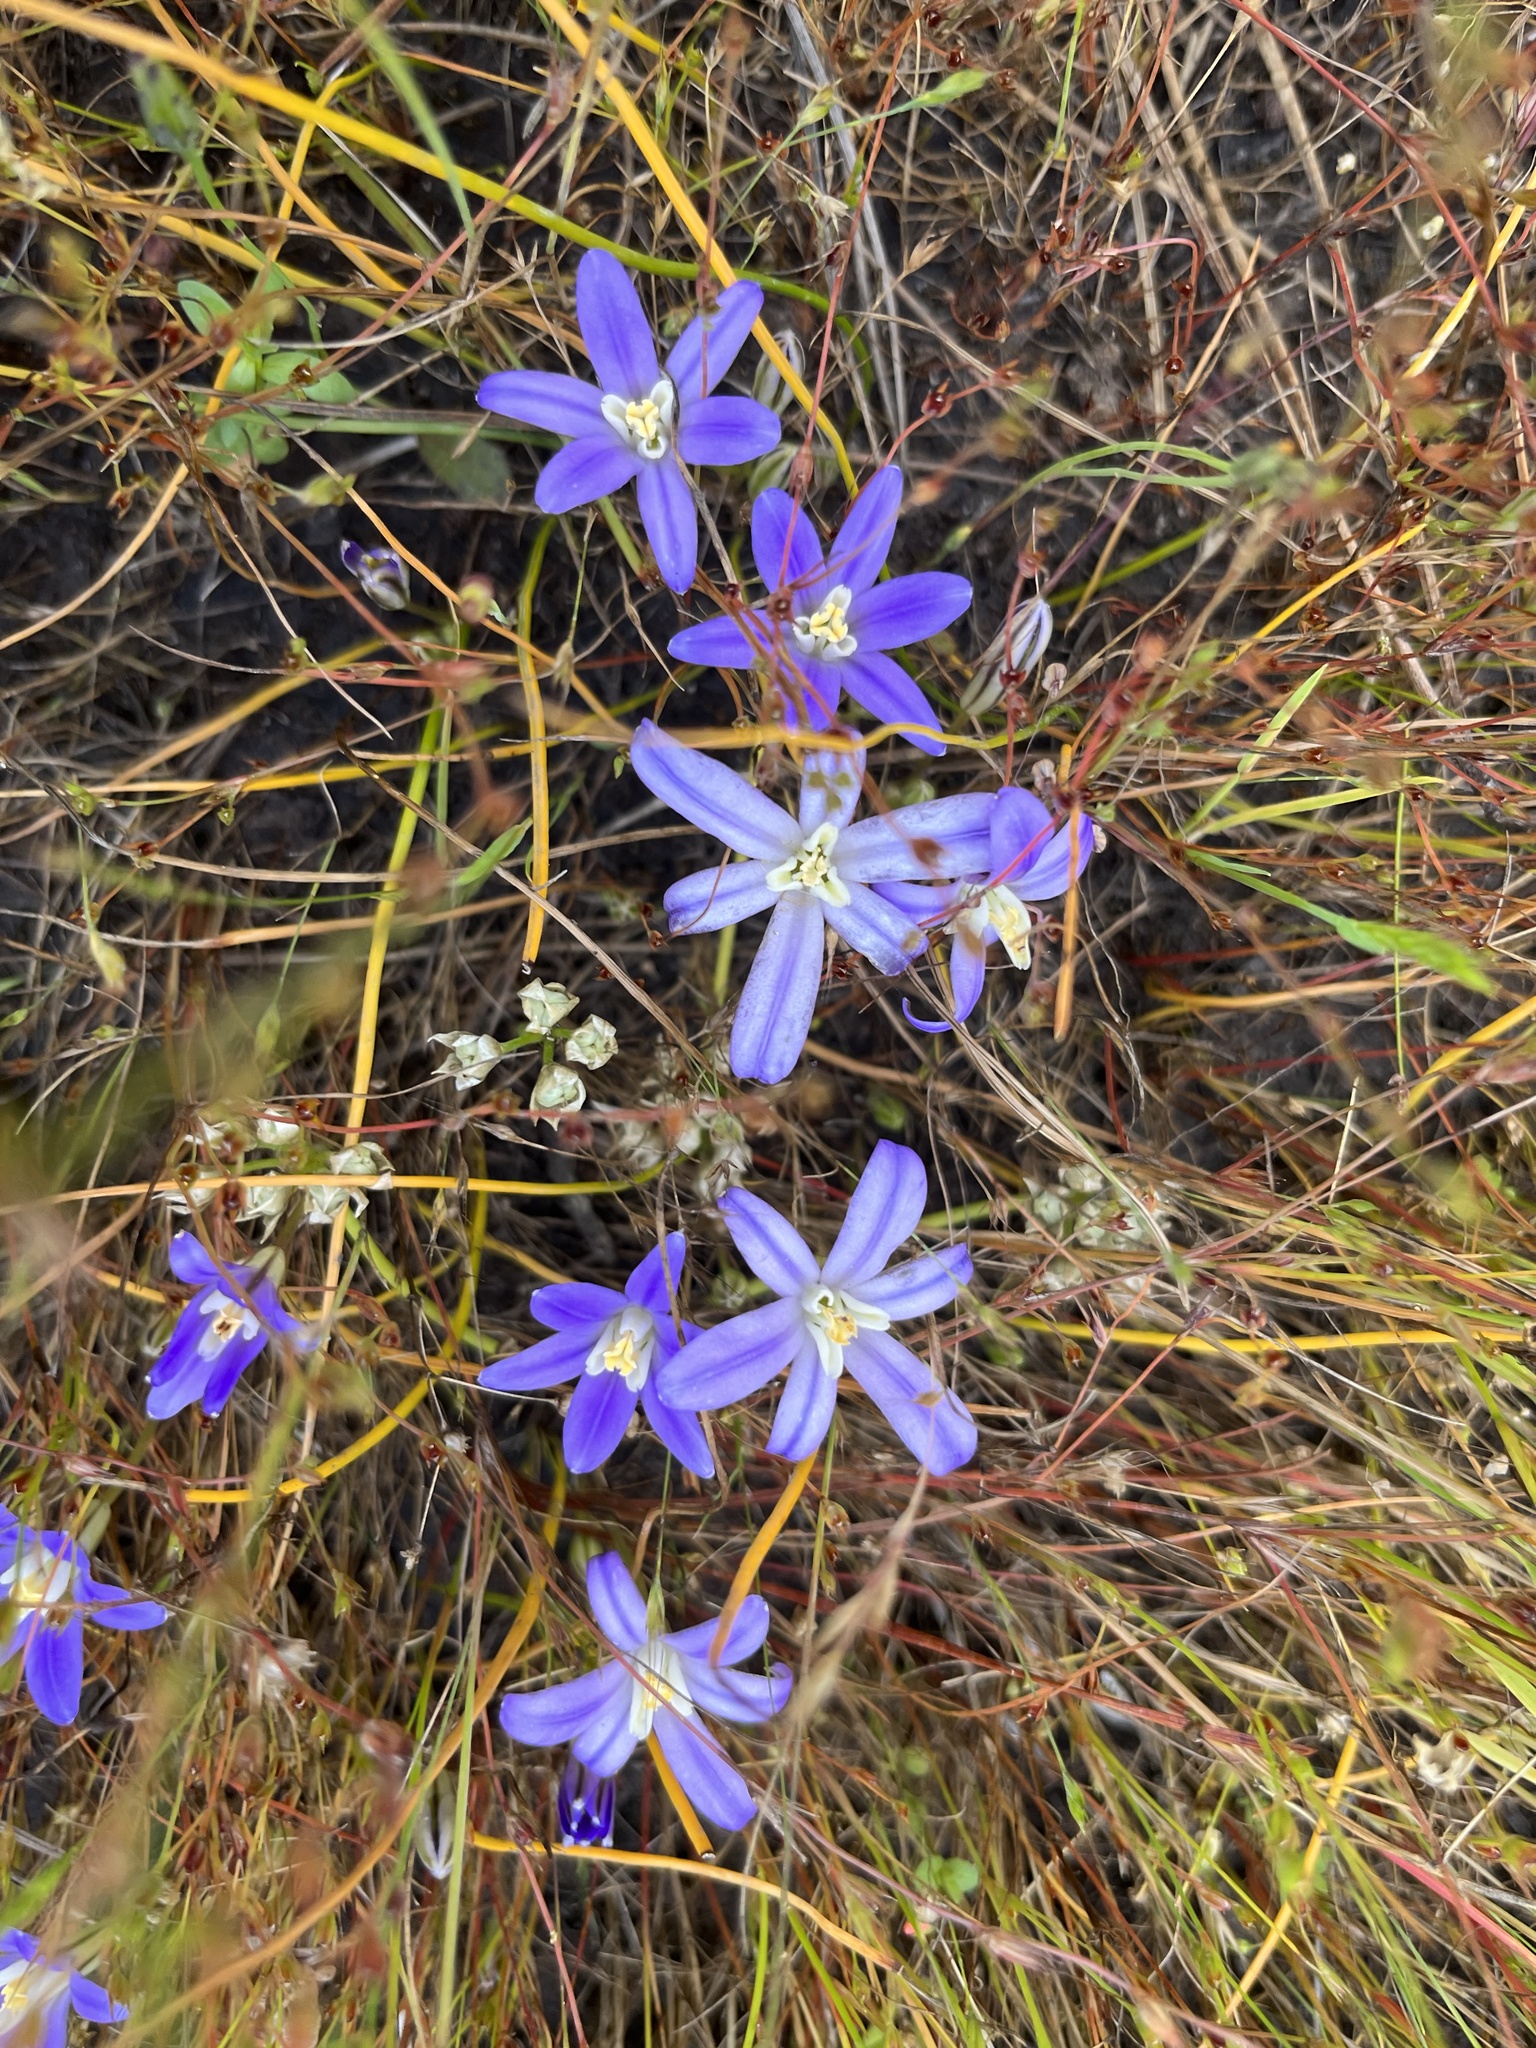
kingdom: Plantae
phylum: Tracheophyta
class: Liliopsida
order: Asparagales
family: Asparagaceae
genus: Brodiaea
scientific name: Brodiaea terrestris
